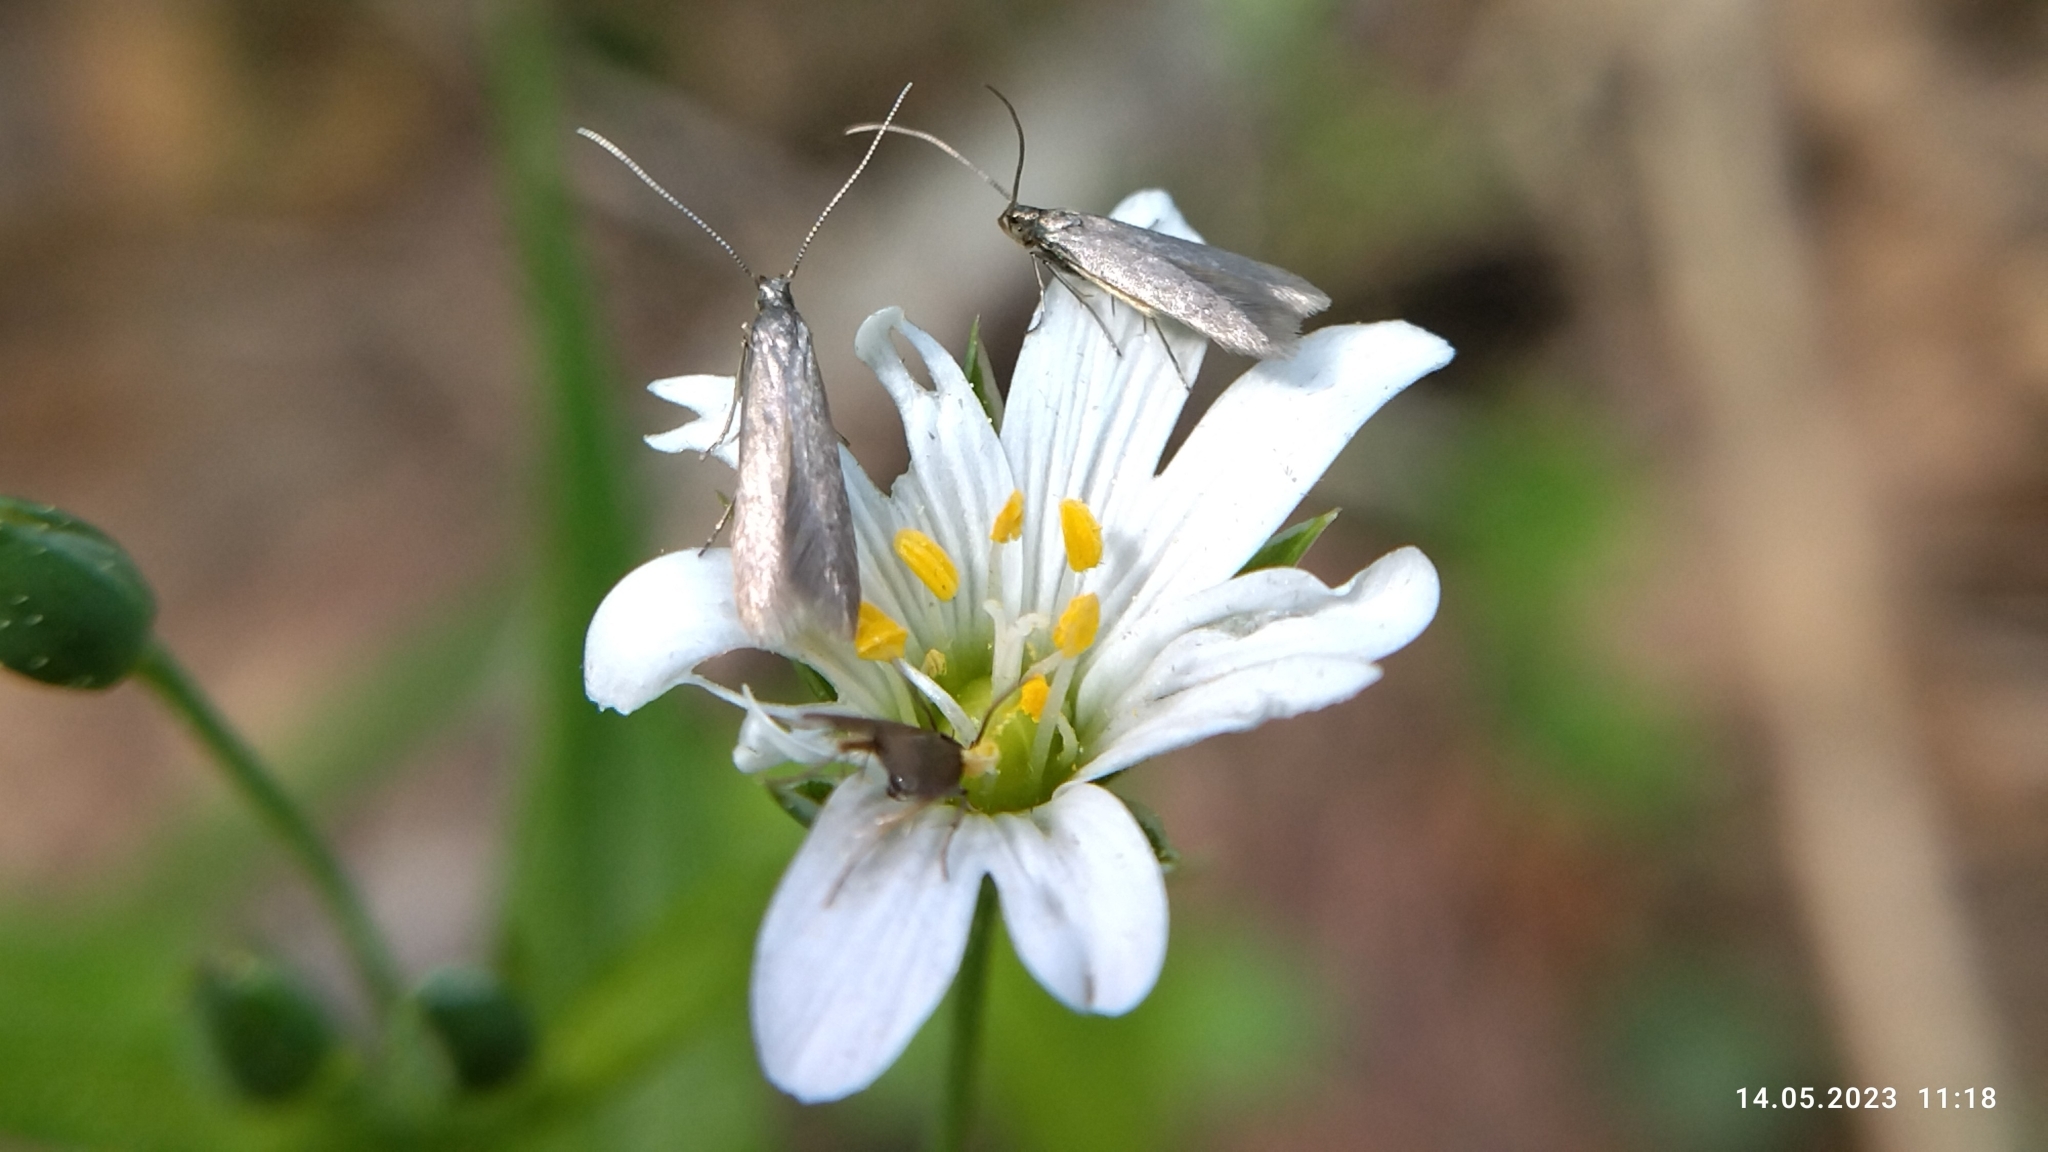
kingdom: Animalia
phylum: Arthropoda
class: Insecta
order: Lepidoptera
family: Coleophoridae
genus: Metriotes
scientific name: Metriotes lutarea
